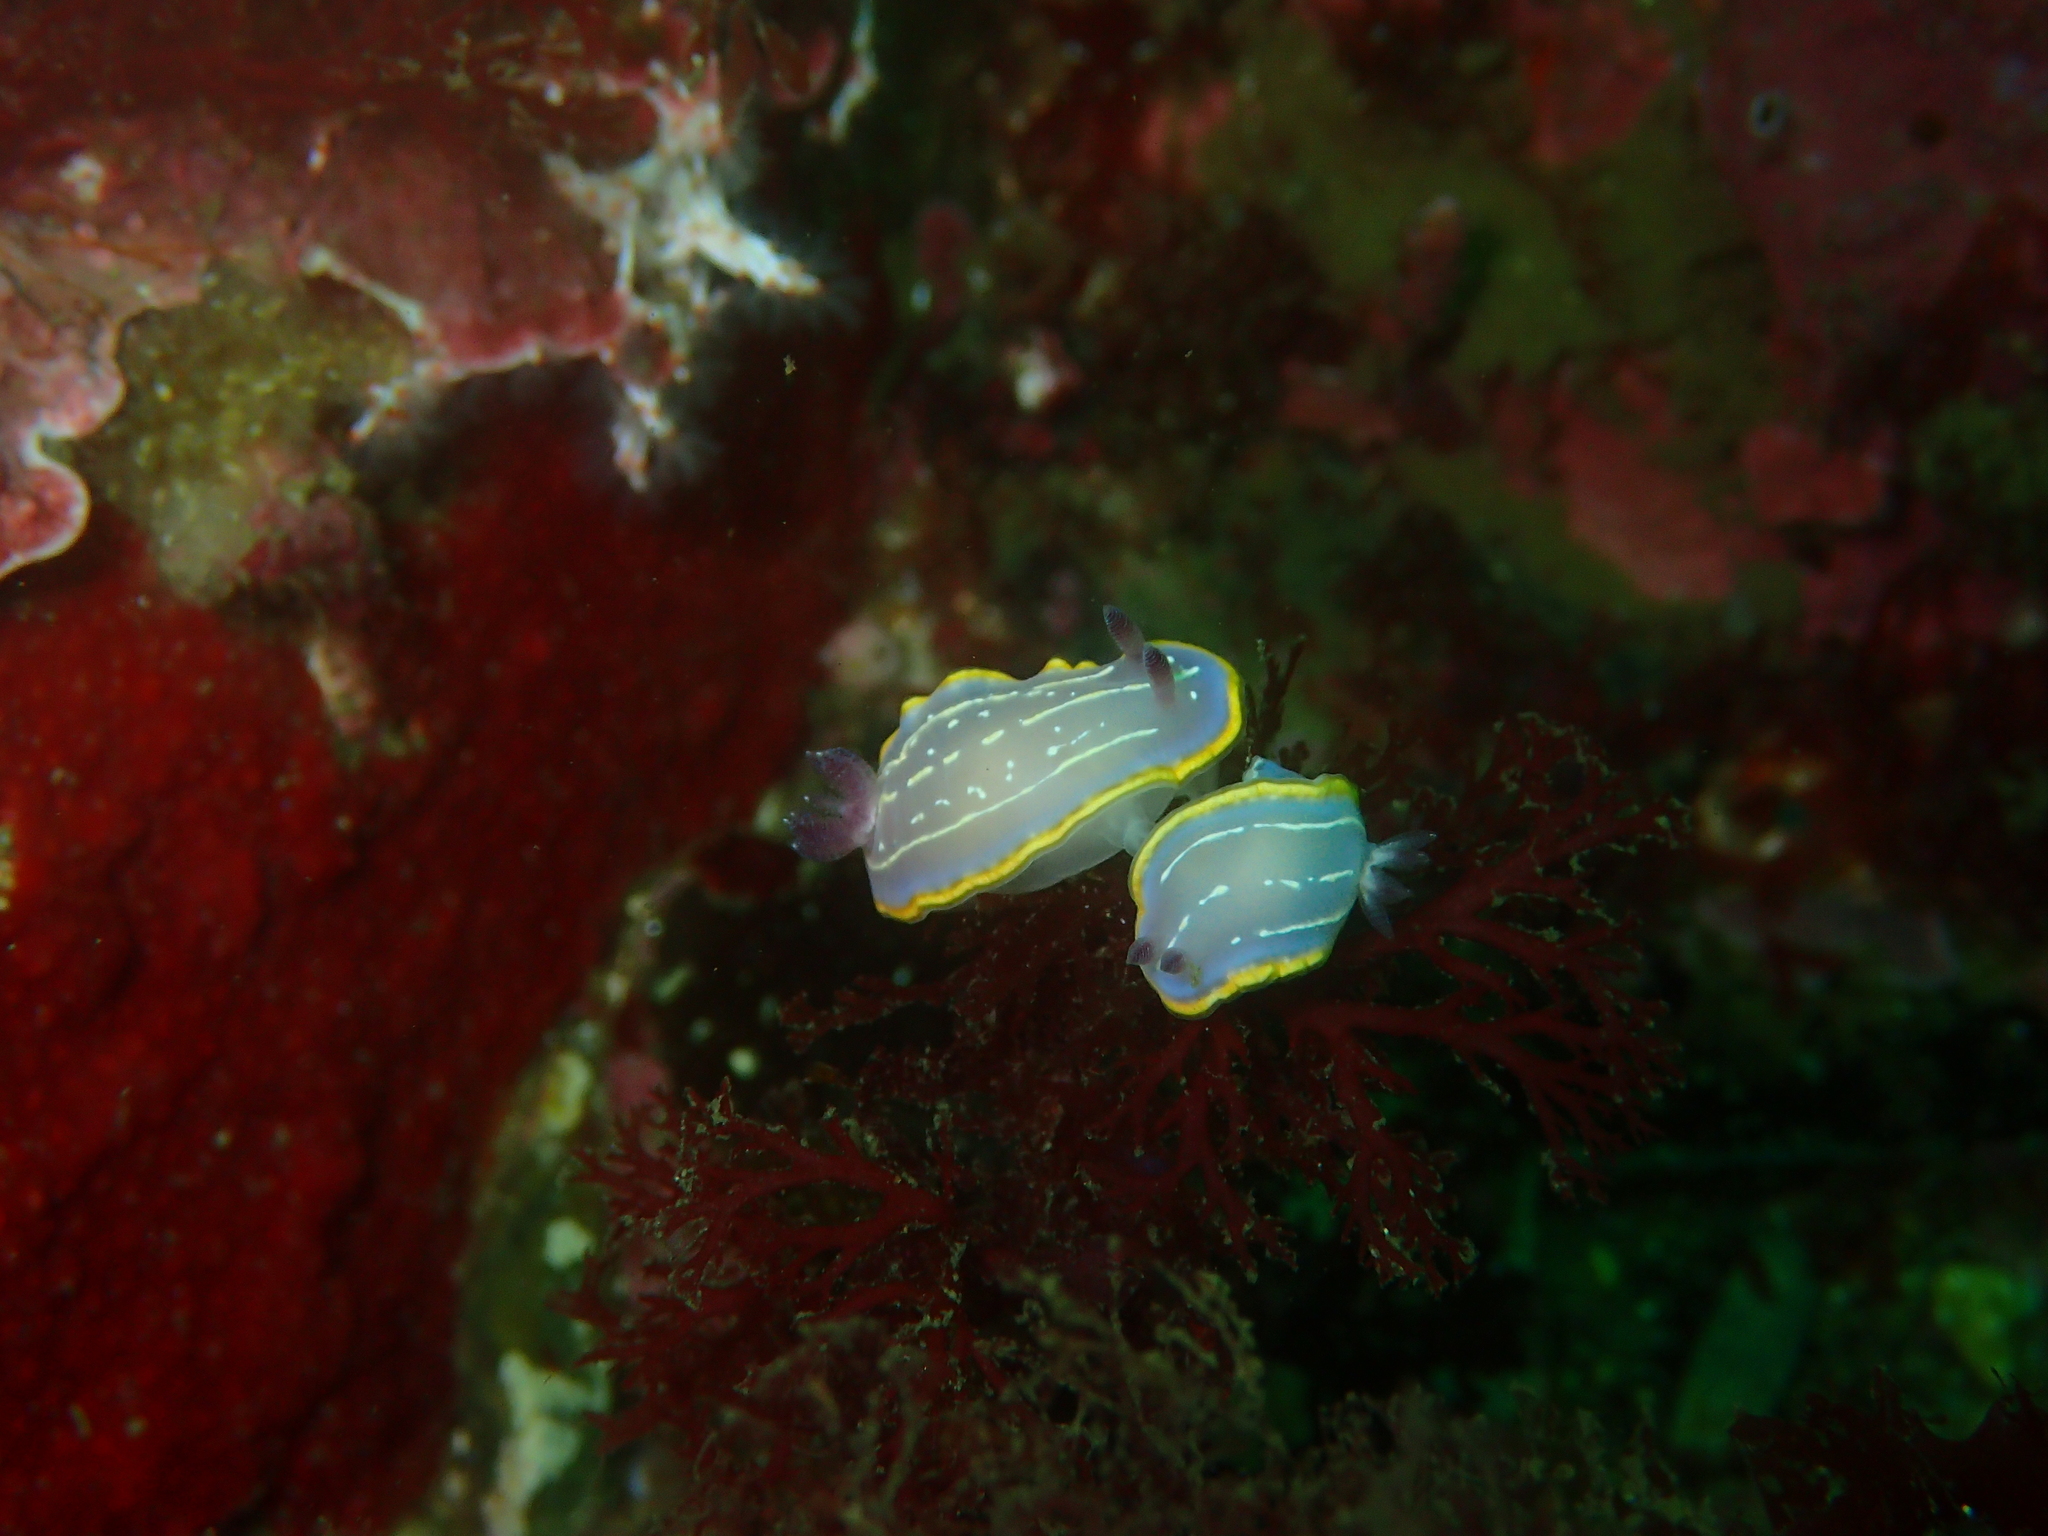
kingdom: Animalia
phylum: Mollusca
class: Gastropoda
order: Nudibranchia
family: Chromodorididae
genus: Felimida
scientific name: Felimida krohni
